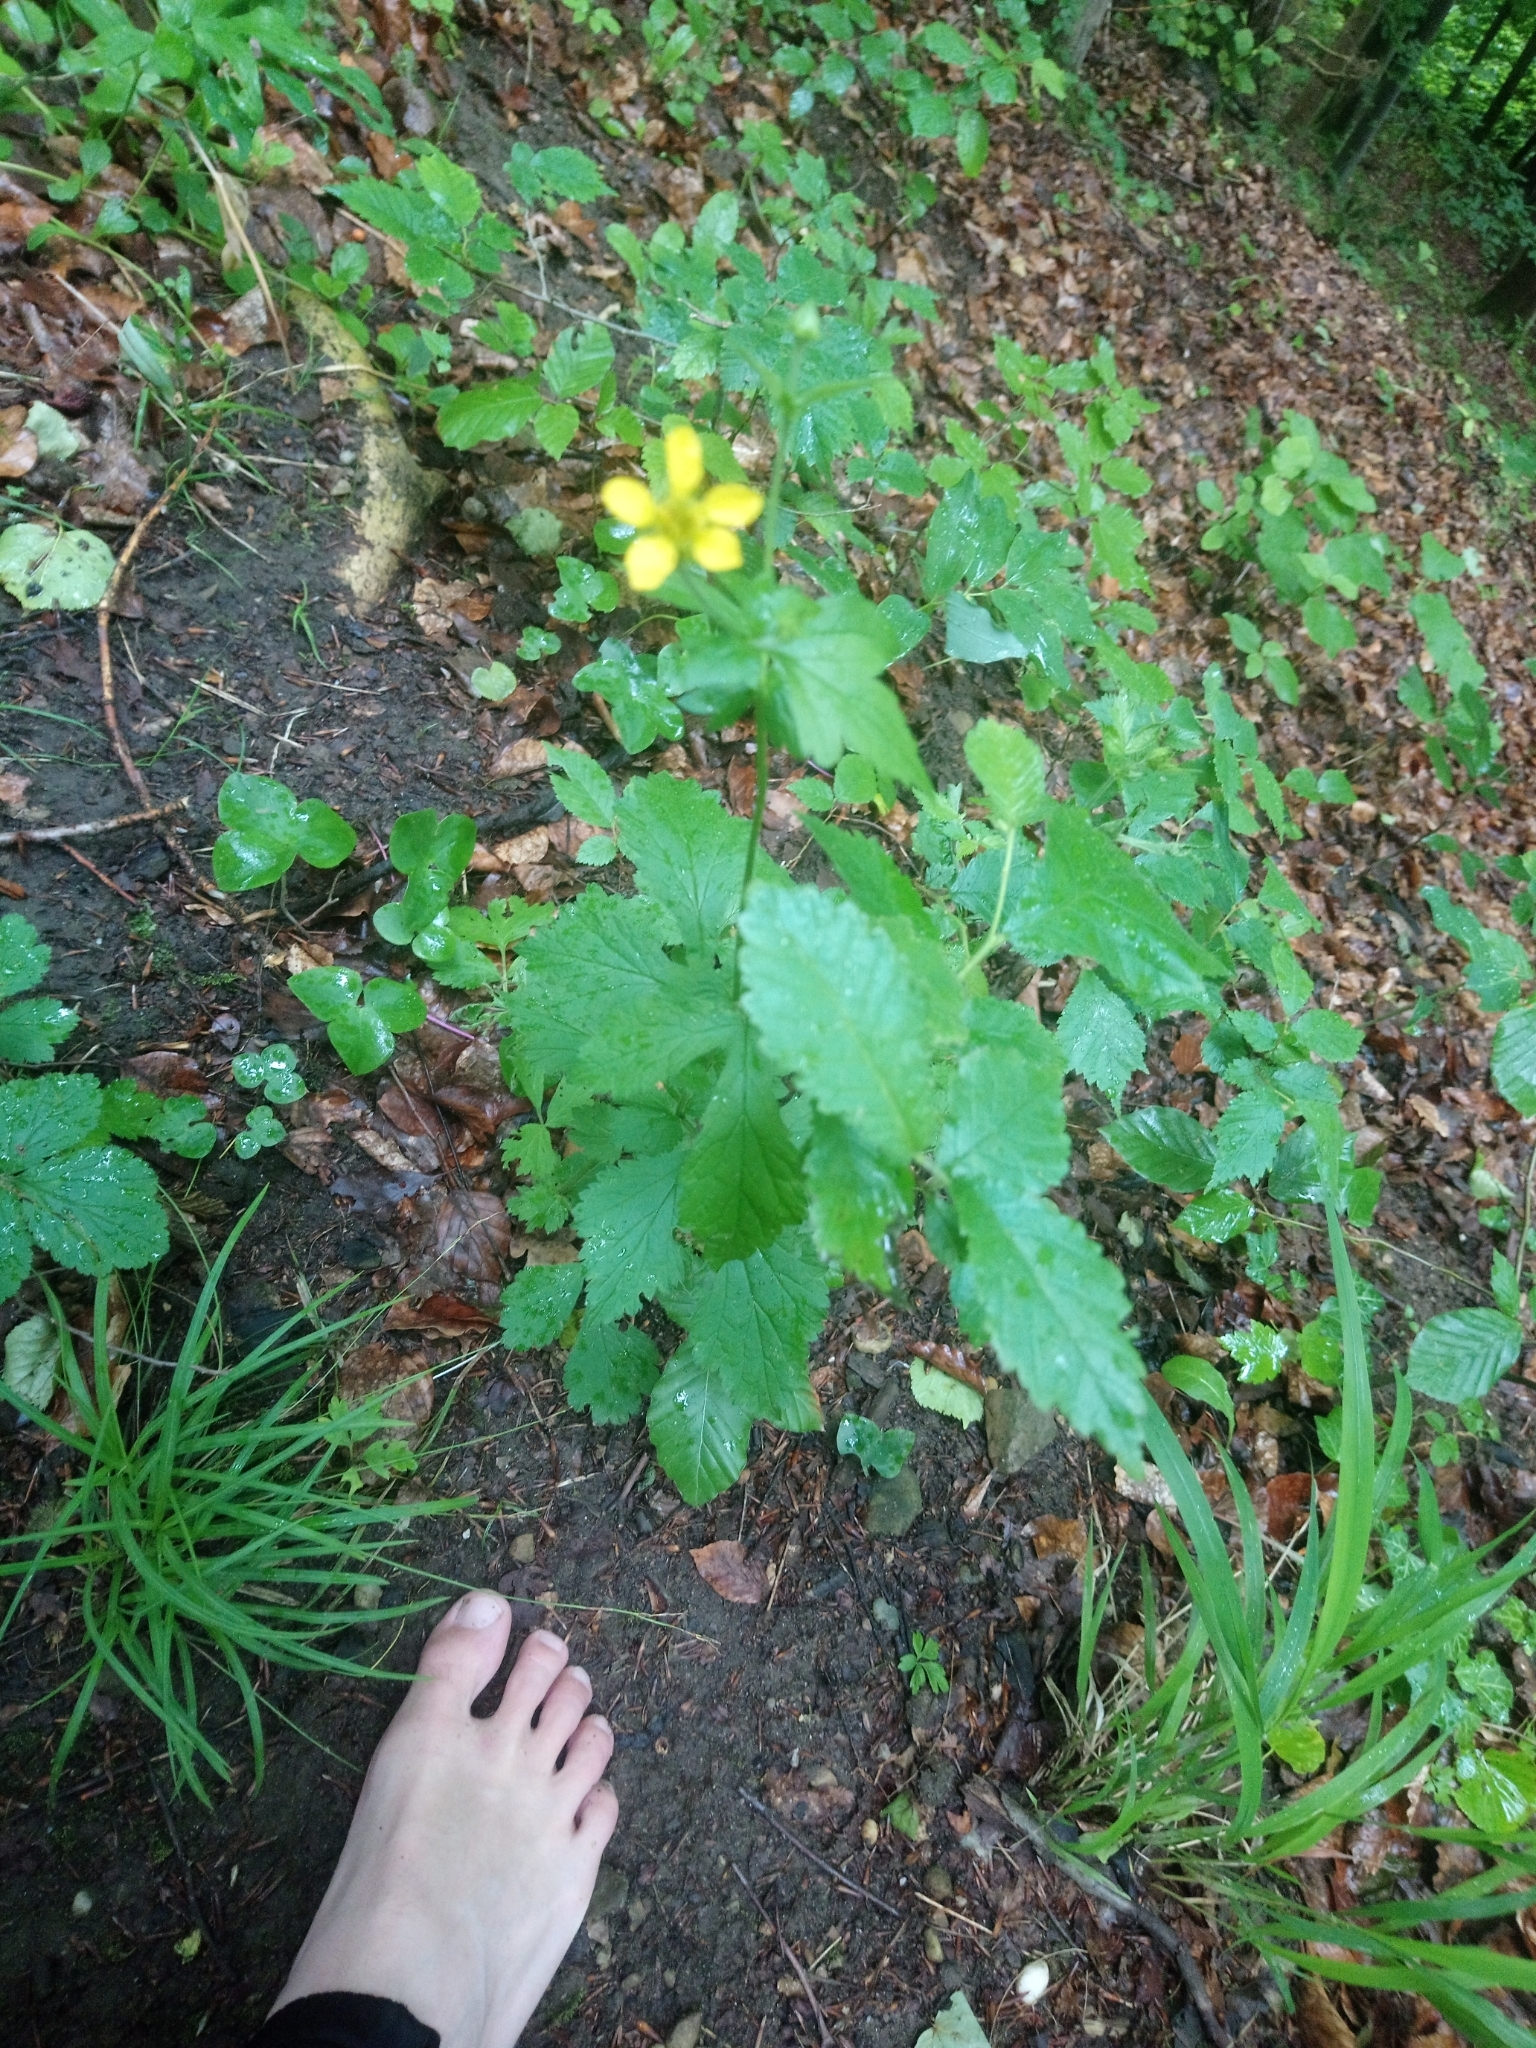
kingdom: Plantae
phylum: Tracheophyta
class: Magnoliopsida
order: Rosales
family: Rosaceae
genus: Geum
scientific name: Geum urbanum
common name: Wood avens
